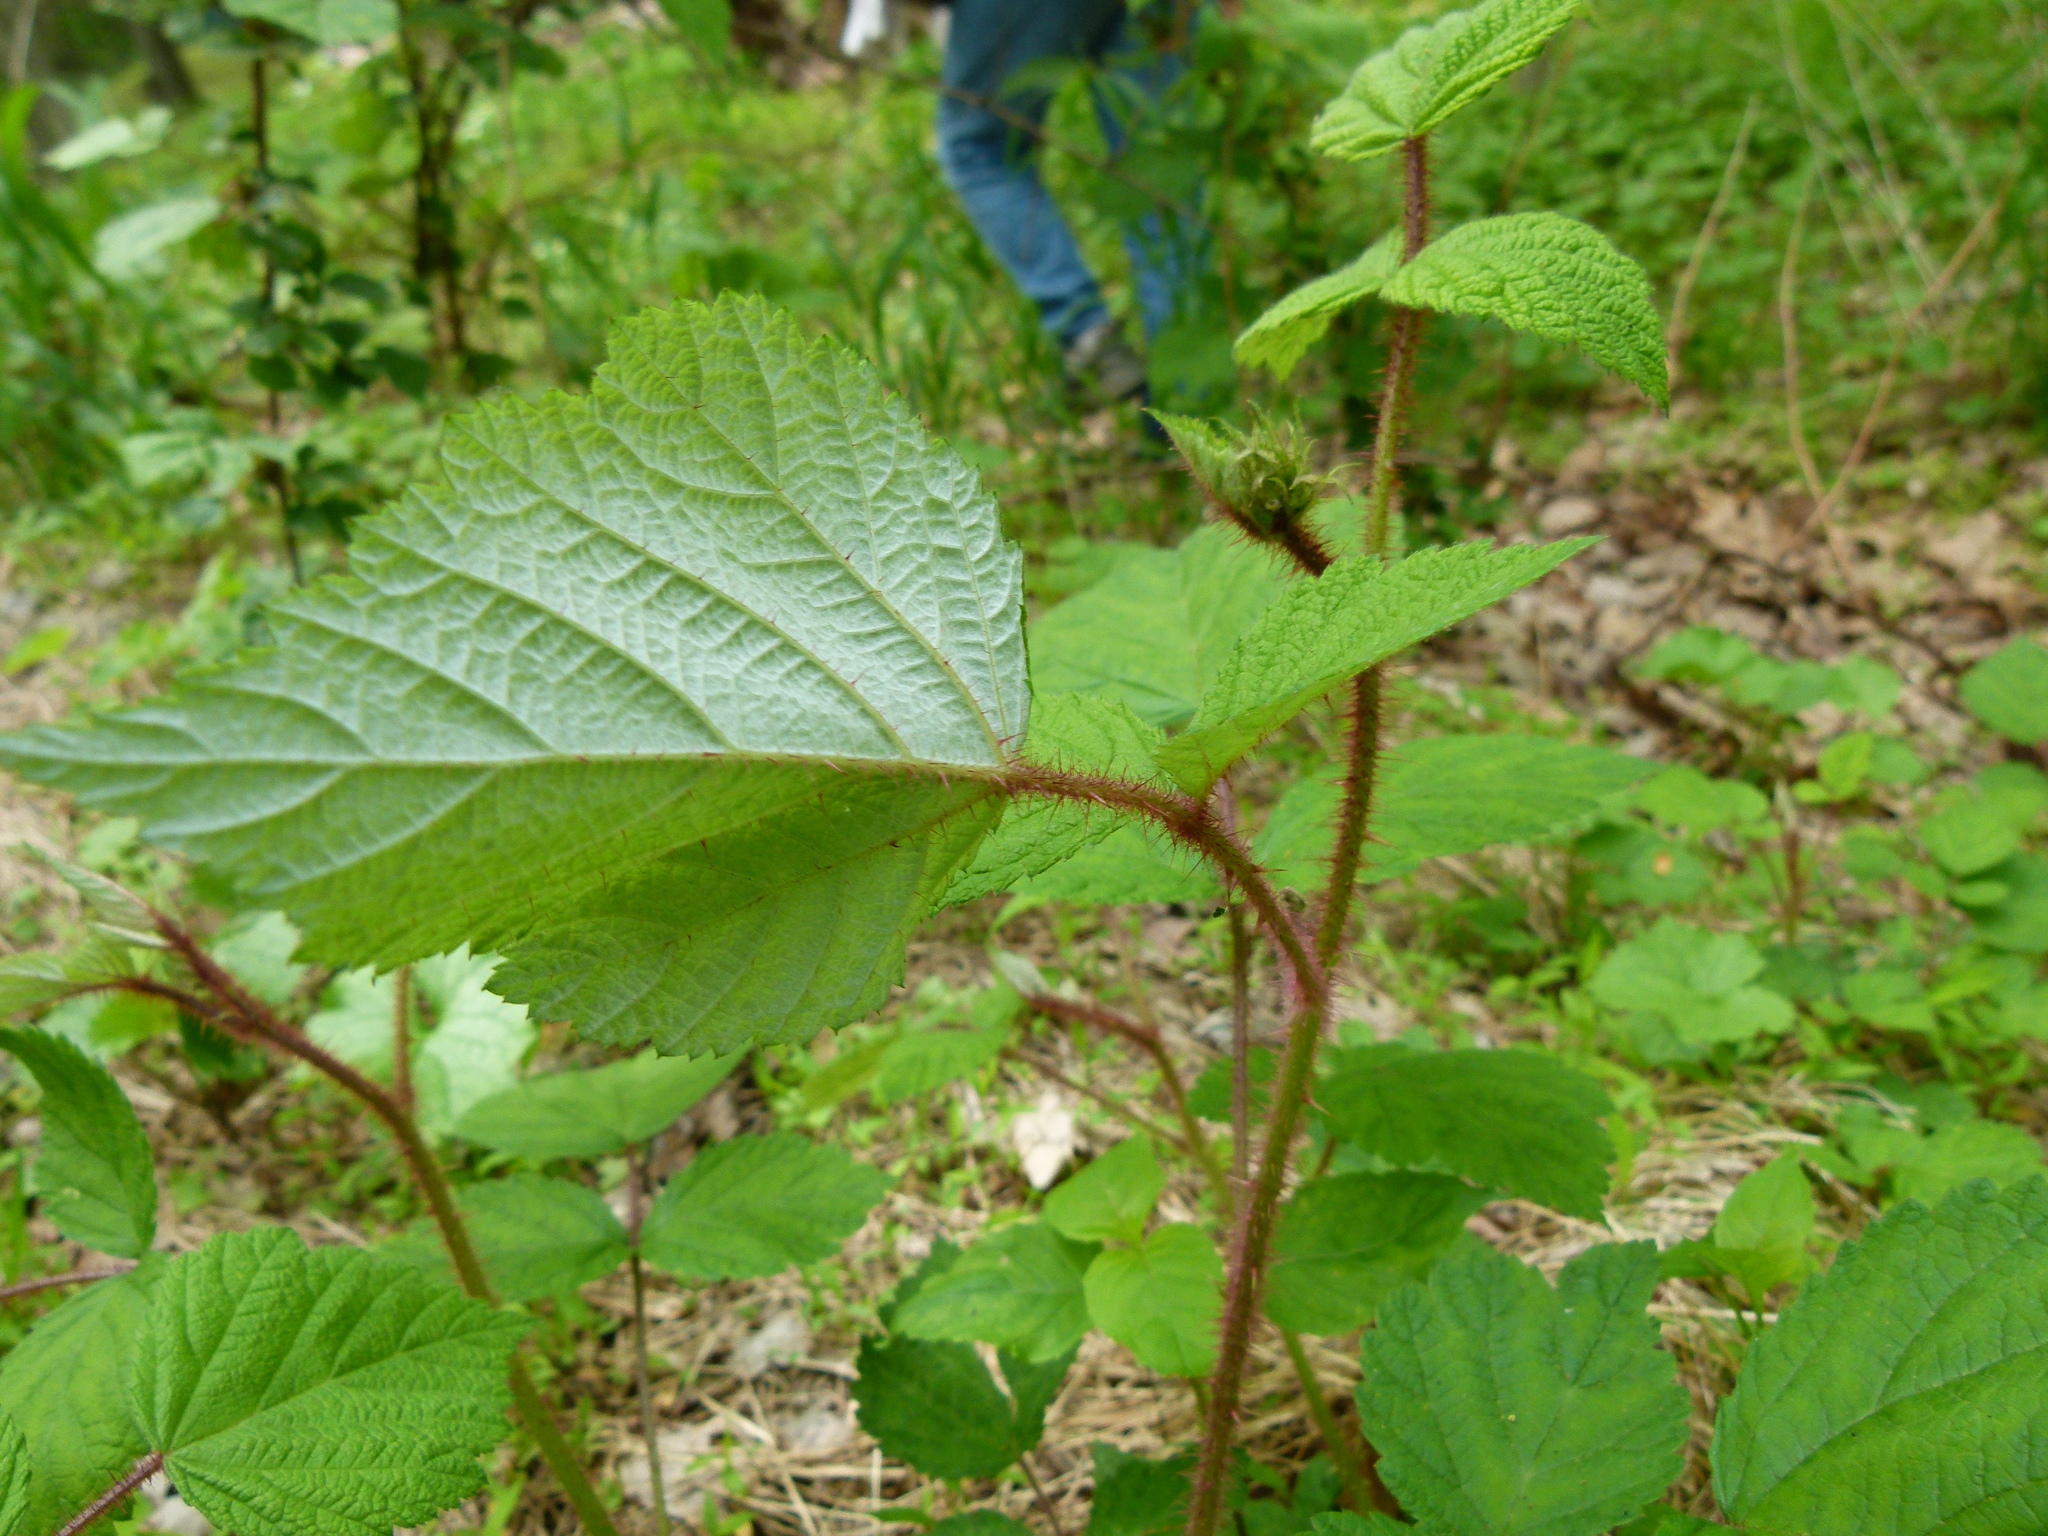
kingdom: Plantae
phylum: Tracheophyta
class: Magnoliopsida
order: Rosales
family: Rosaceae
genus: Rubus
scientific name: Rubus phoenicolasius
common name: Japanese wineberry
